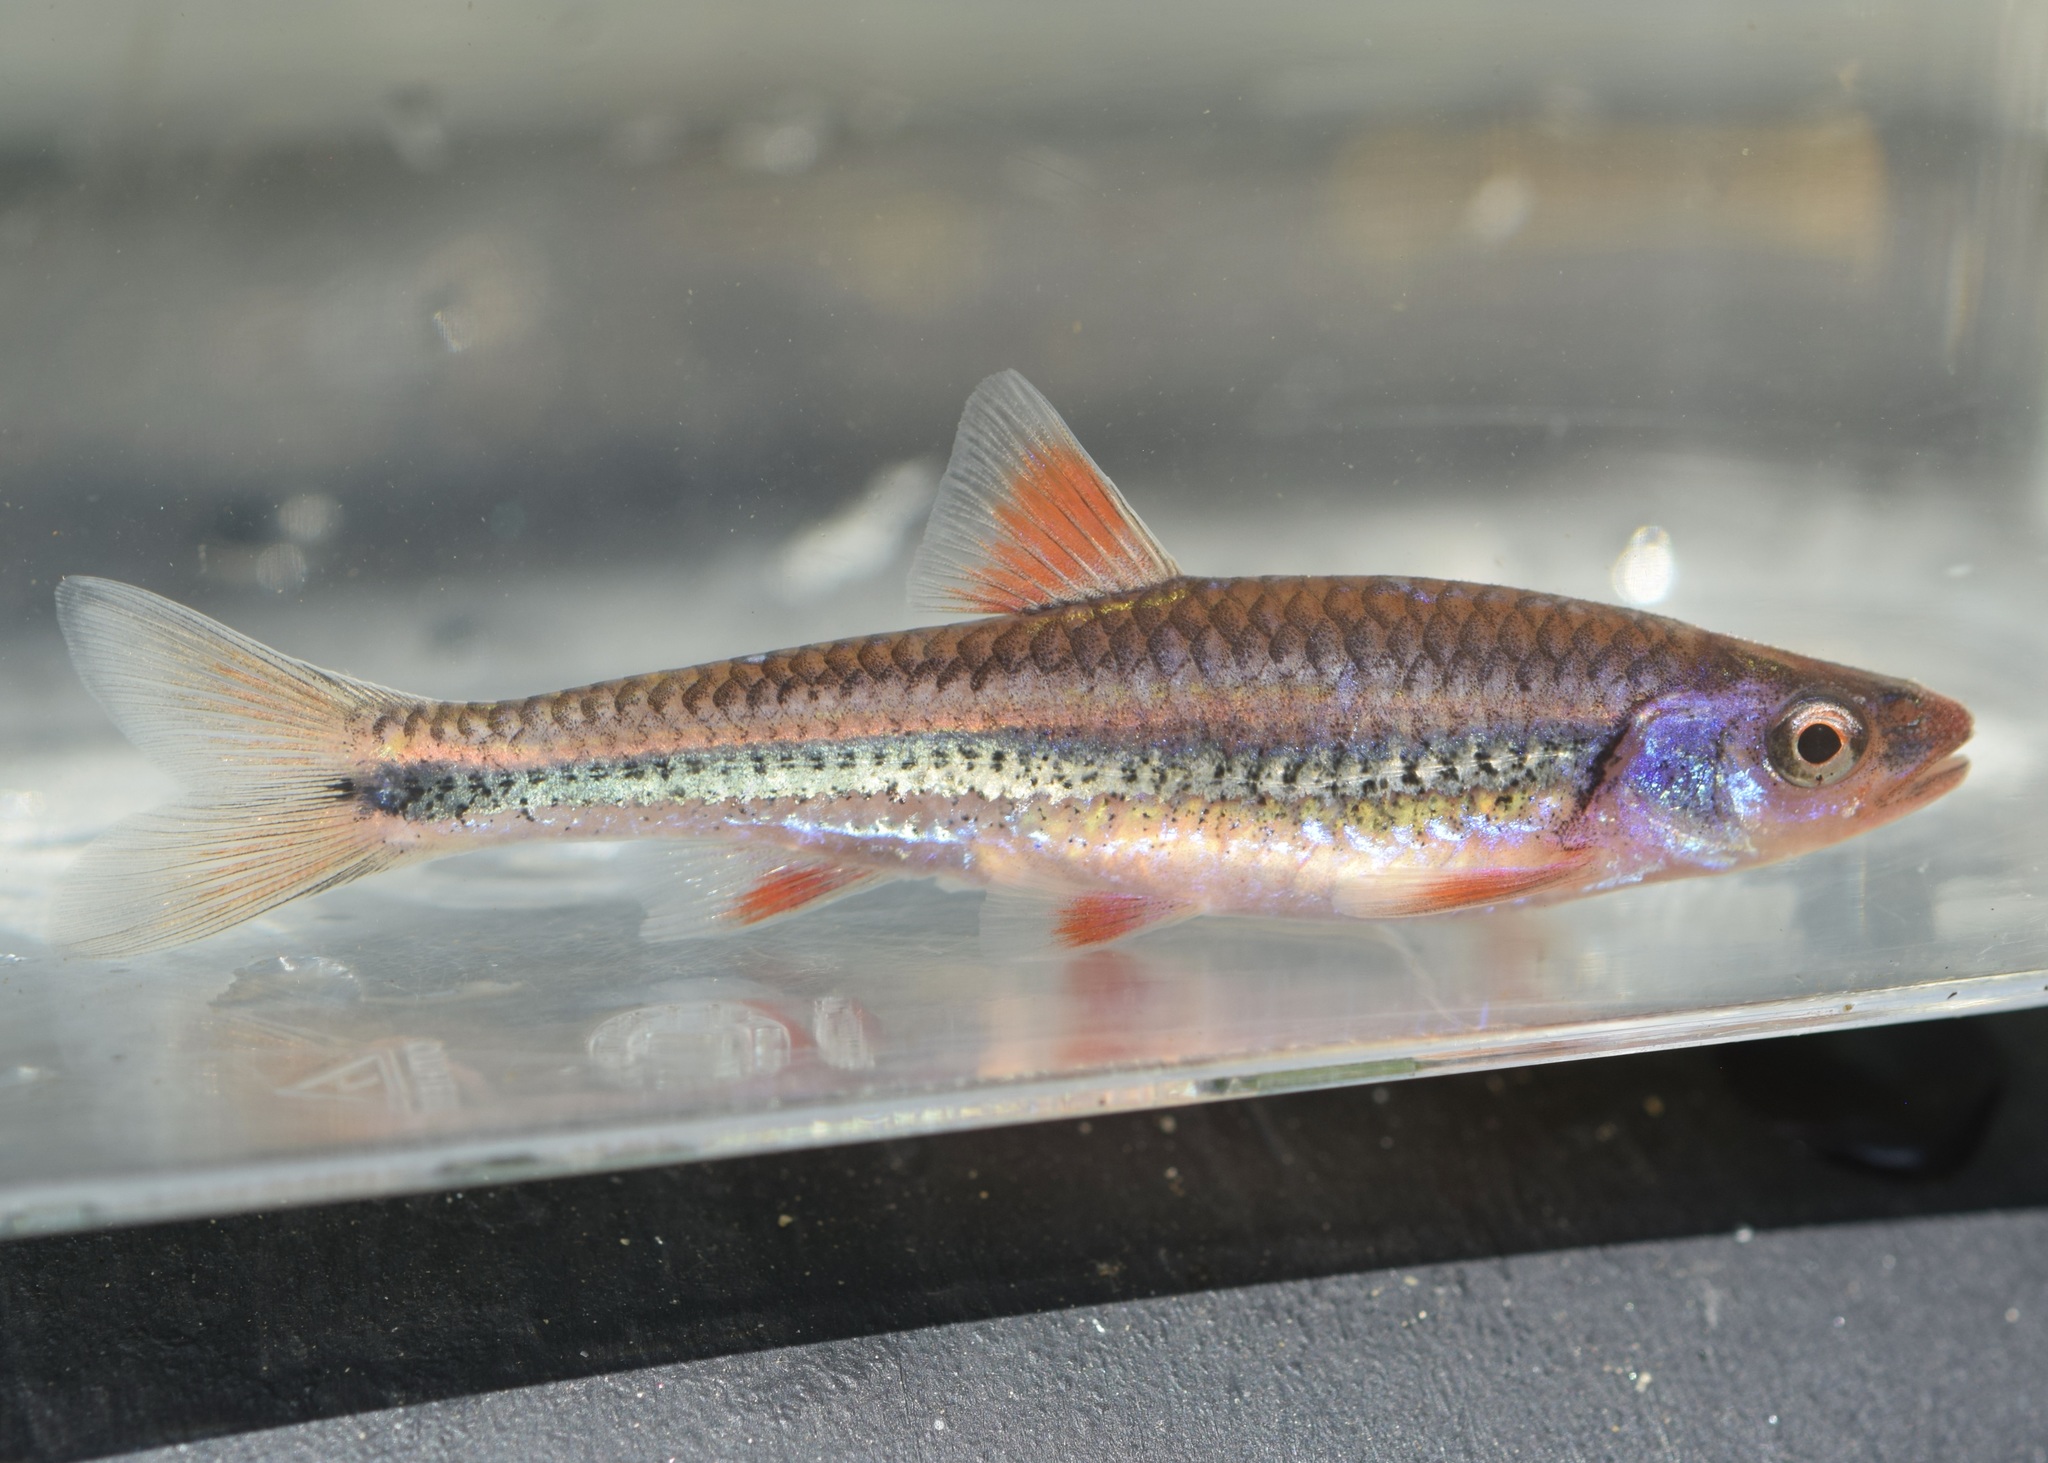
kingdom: Animalia
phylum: Chordata
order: Cypriniformes
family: Cyprinidae
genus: Notropis
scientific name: Notropis
